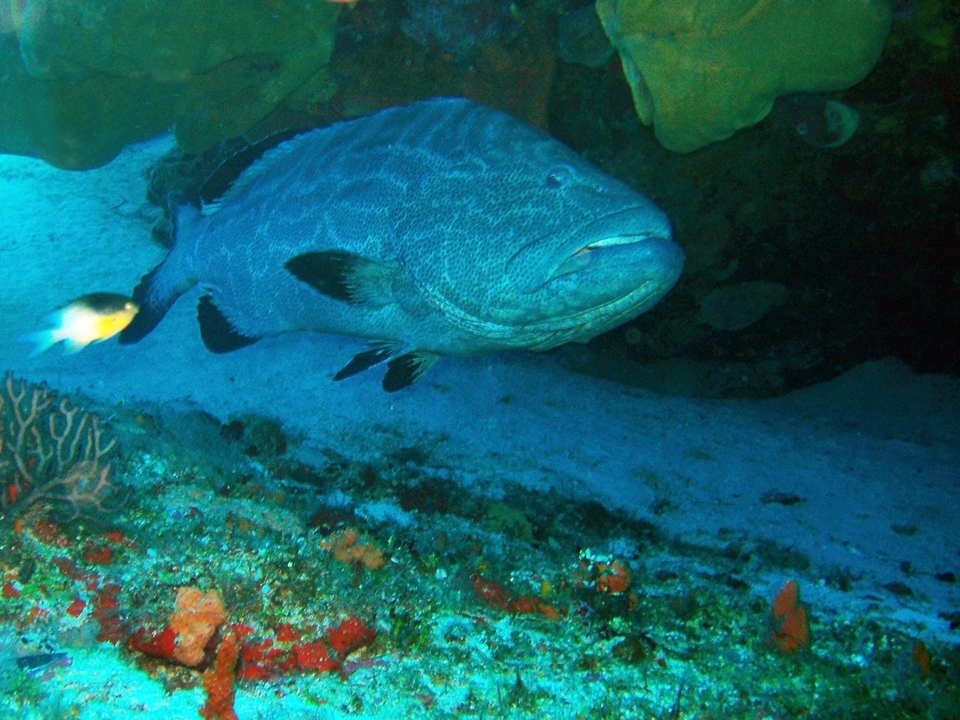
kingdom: Animalia
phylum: Chordata
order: Perciformes
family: Serranidae
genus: Mycteroperca
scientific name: Mycteroperca bonaci
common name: Black grouper
